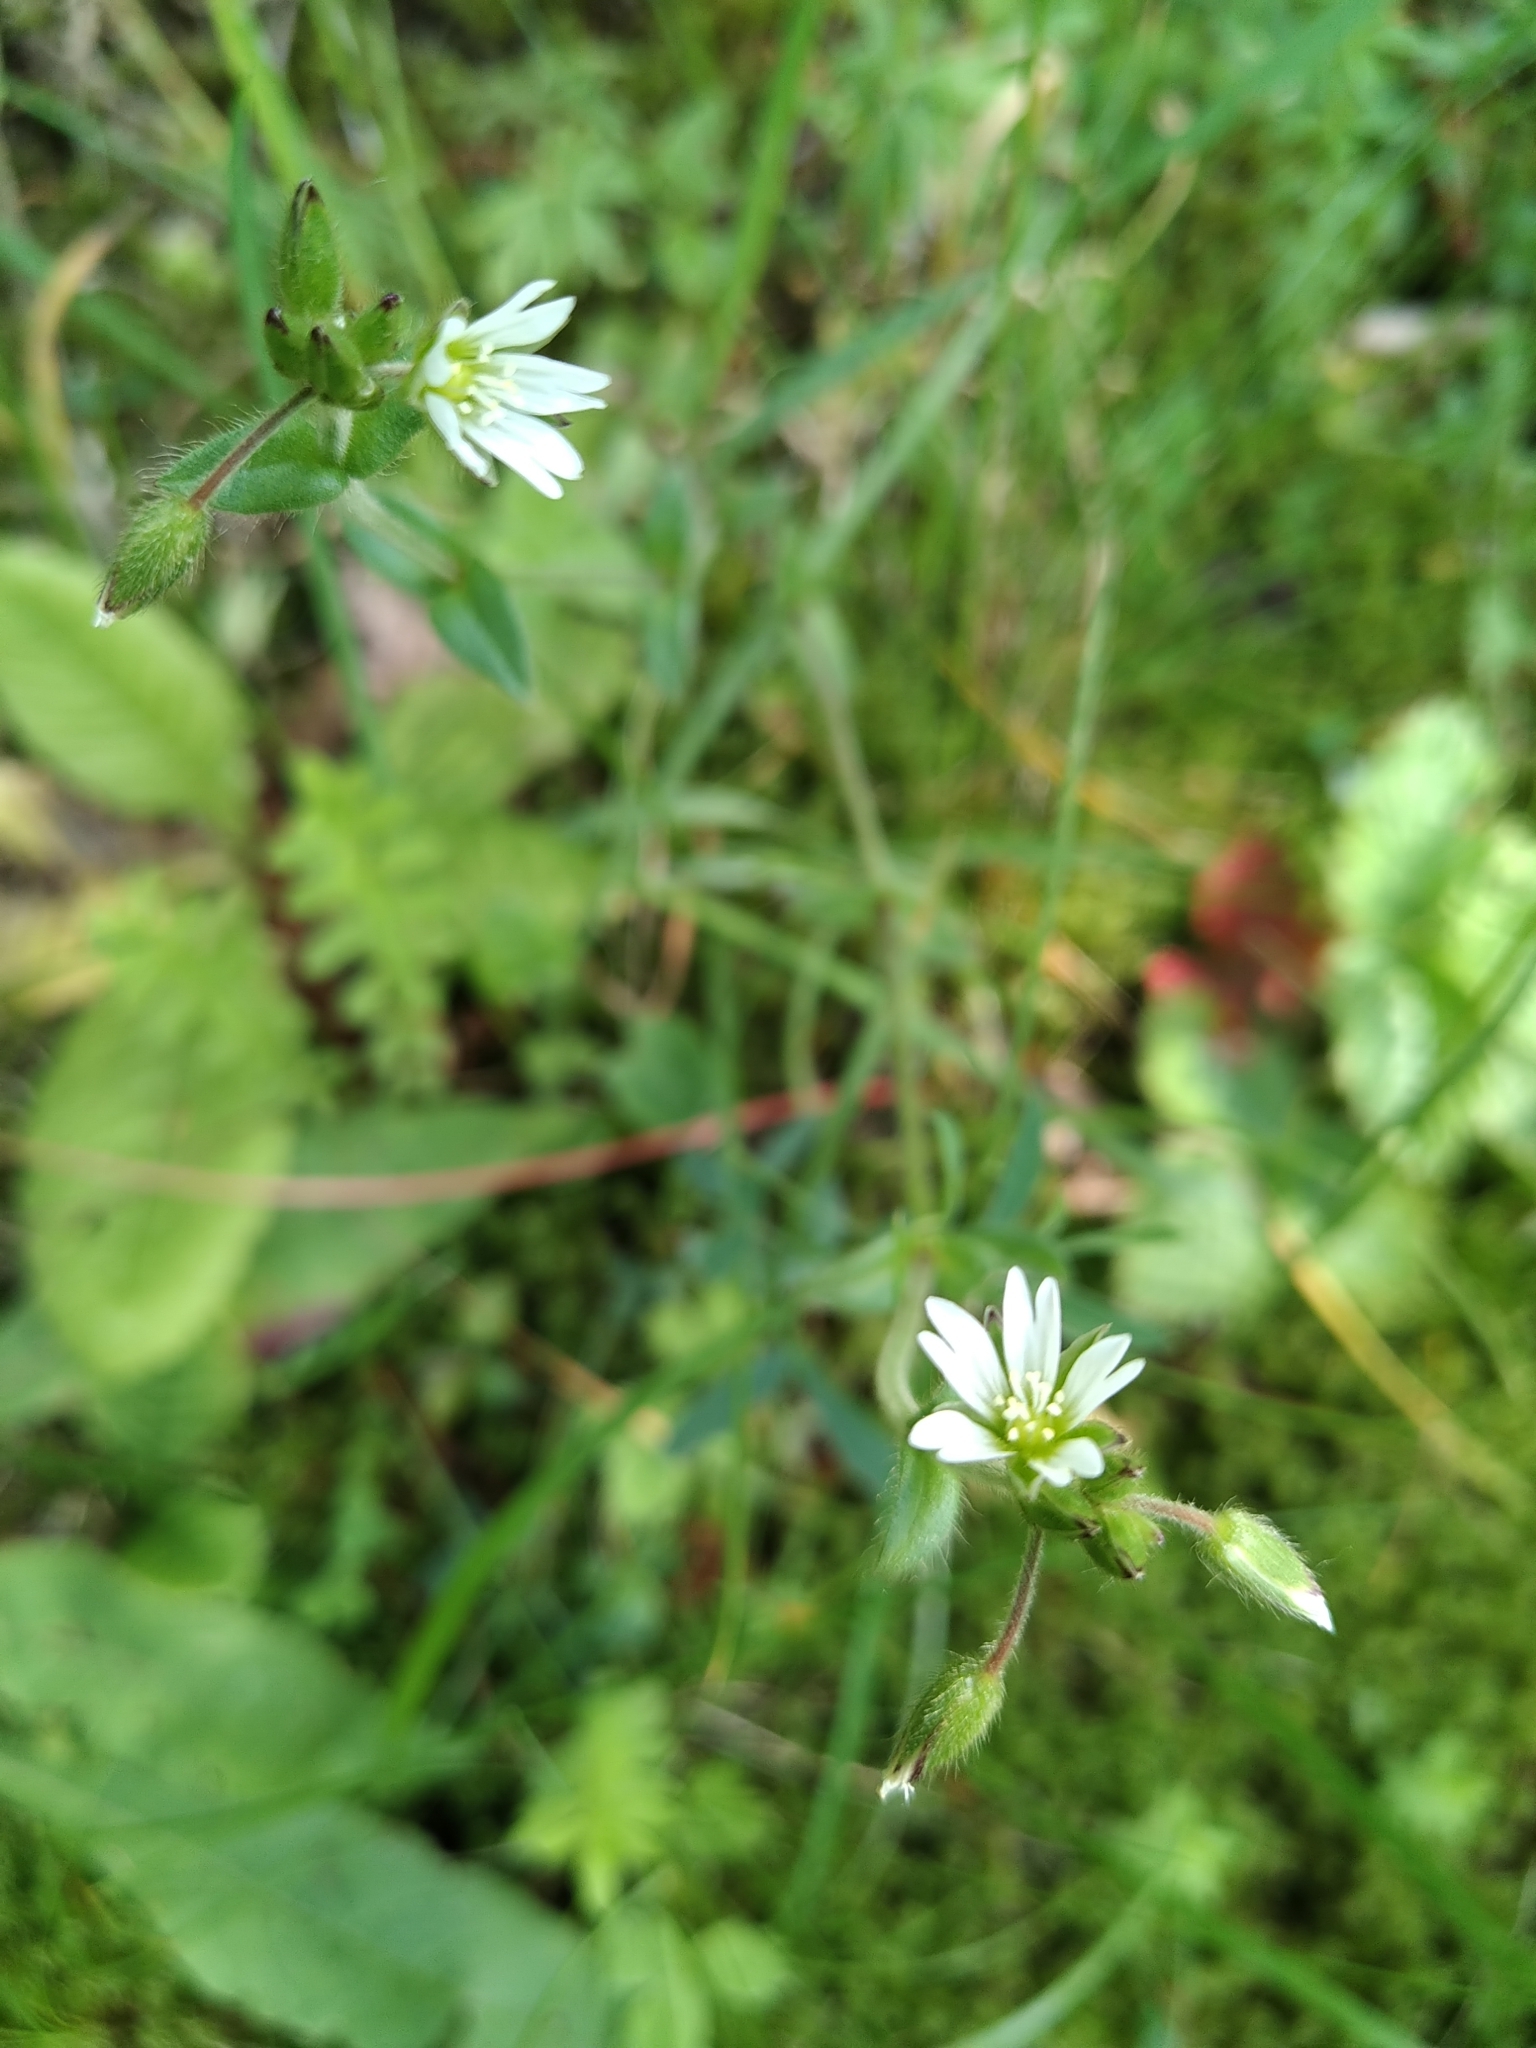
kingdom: Plantae
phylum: Tracheophyta
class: Magnoliopsida
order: Caryophyllales
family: Caryophyllaceae
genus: Cerastium
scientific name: Cerastium holosteoides
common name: Big chickweed
